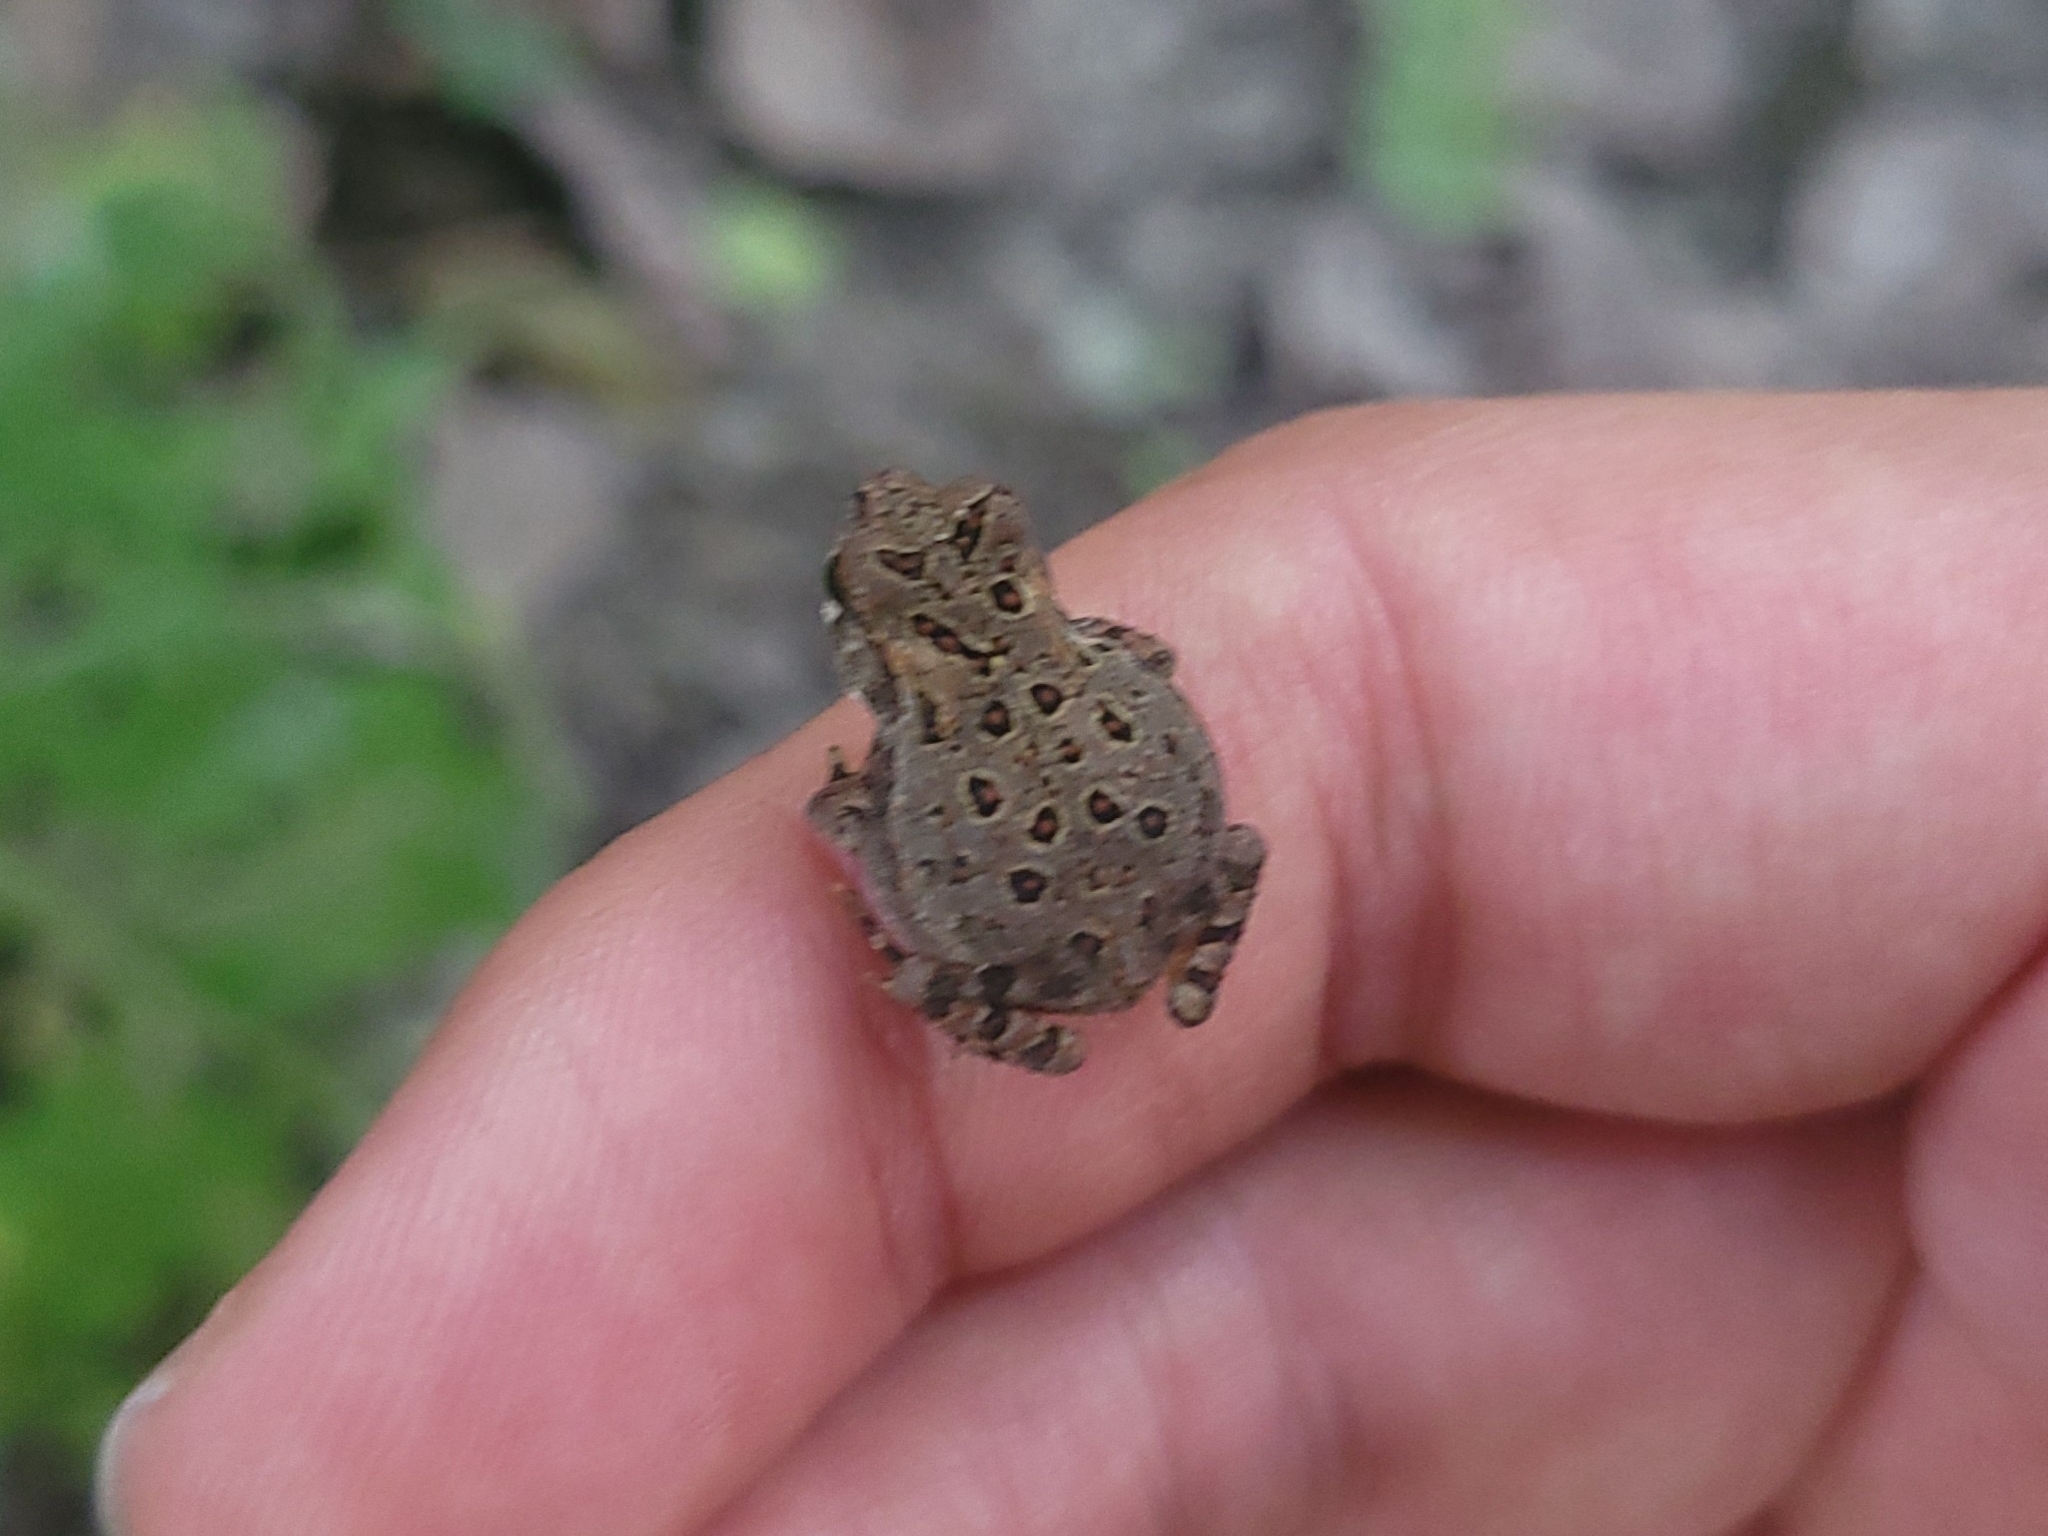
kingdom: Animalia
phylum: Chordata
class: Amphibia
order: Anura
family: Bufonidae
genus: Anaxyrus
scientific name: Anaxyrus americanus
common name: American toad
